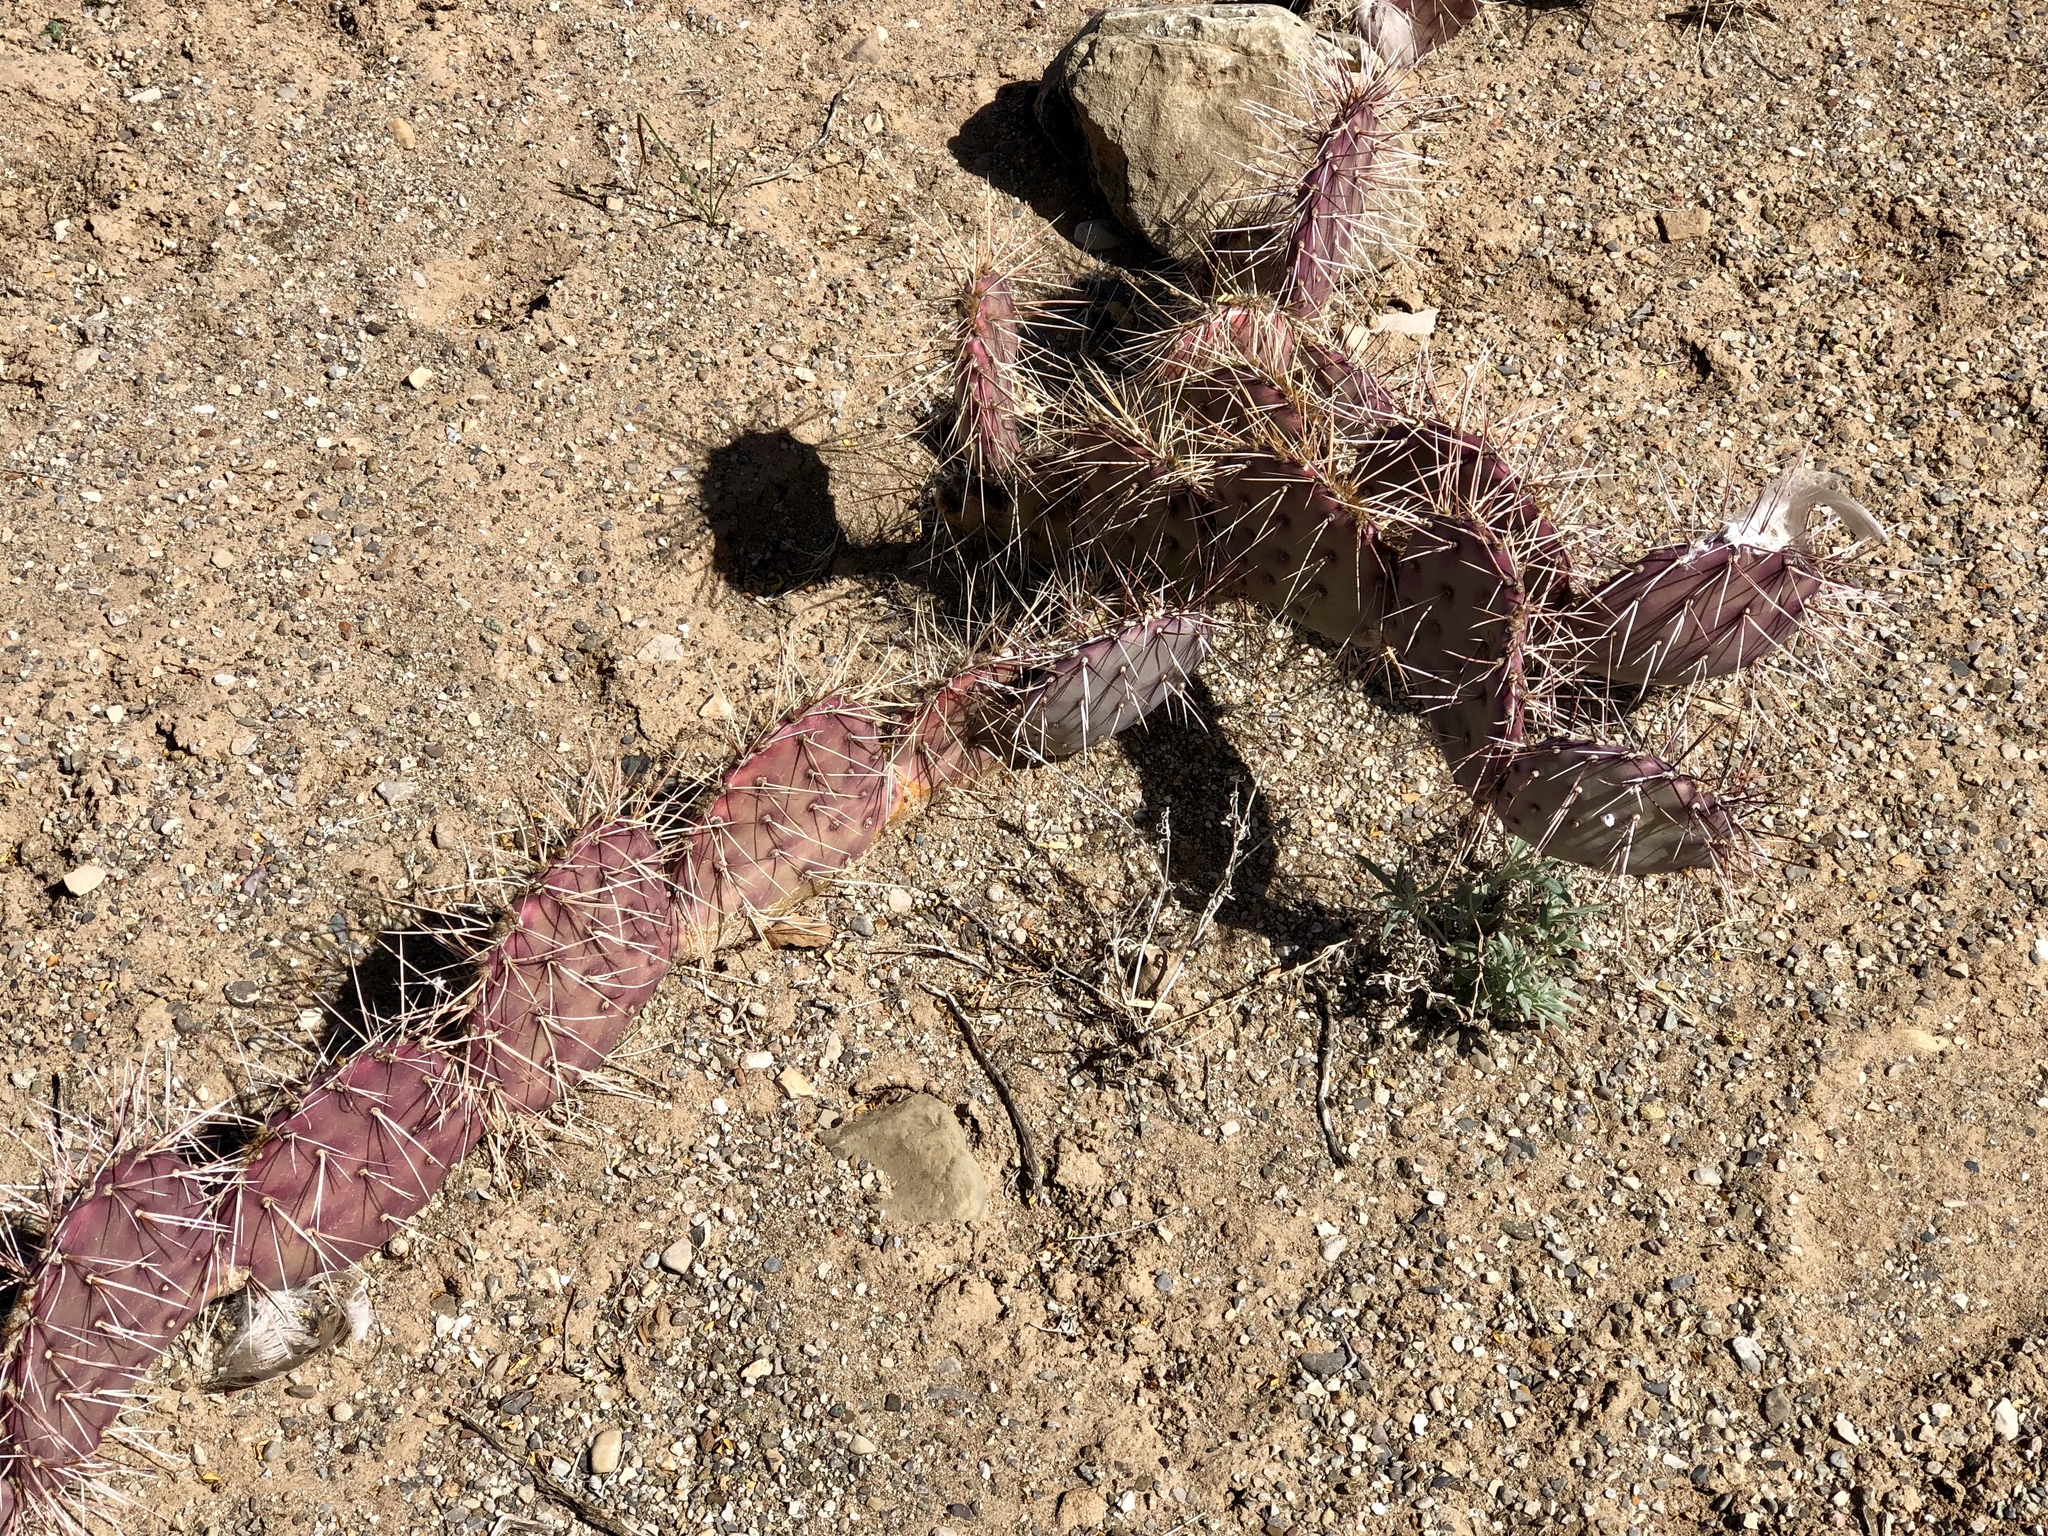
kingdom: Plantae
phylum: Tracheophyta
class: Magnoliopsida
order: Caryophyllales
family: Cactaceae
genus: Opuntia
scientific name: Opuntia phaeacantha
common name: New mexico prickly-pear
